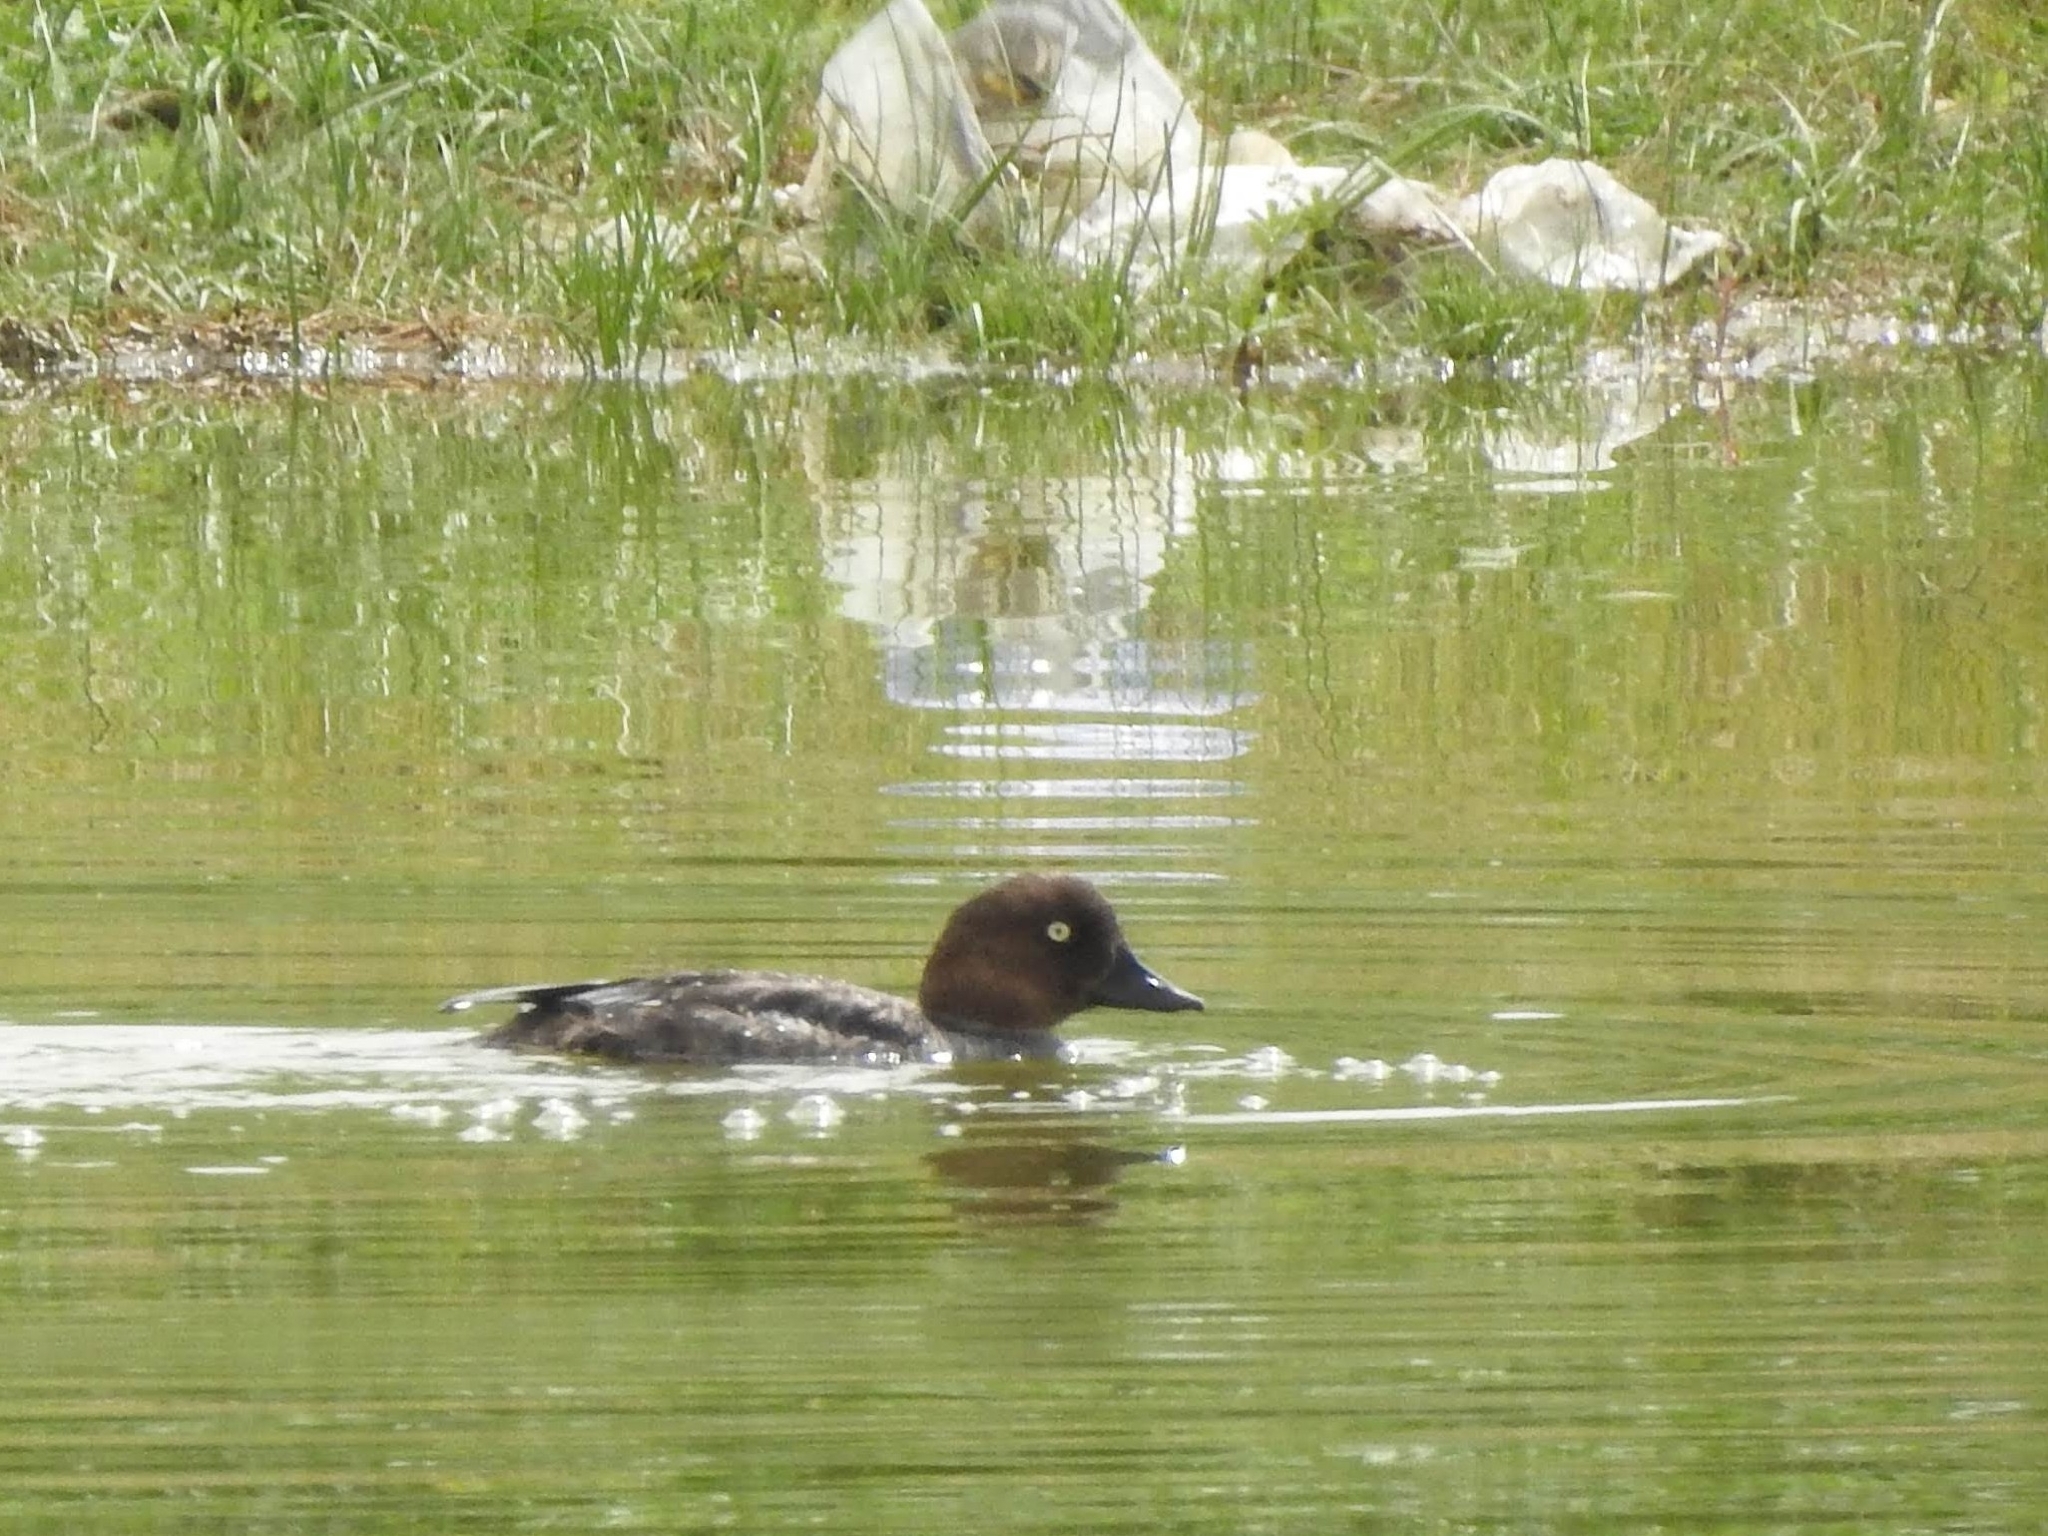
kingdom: Animalia
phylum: Chordata
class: Aves
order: Anseriformes
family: Anatidae
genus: Bucephala
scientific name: Bucephala clangula
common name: Common goldeneye
